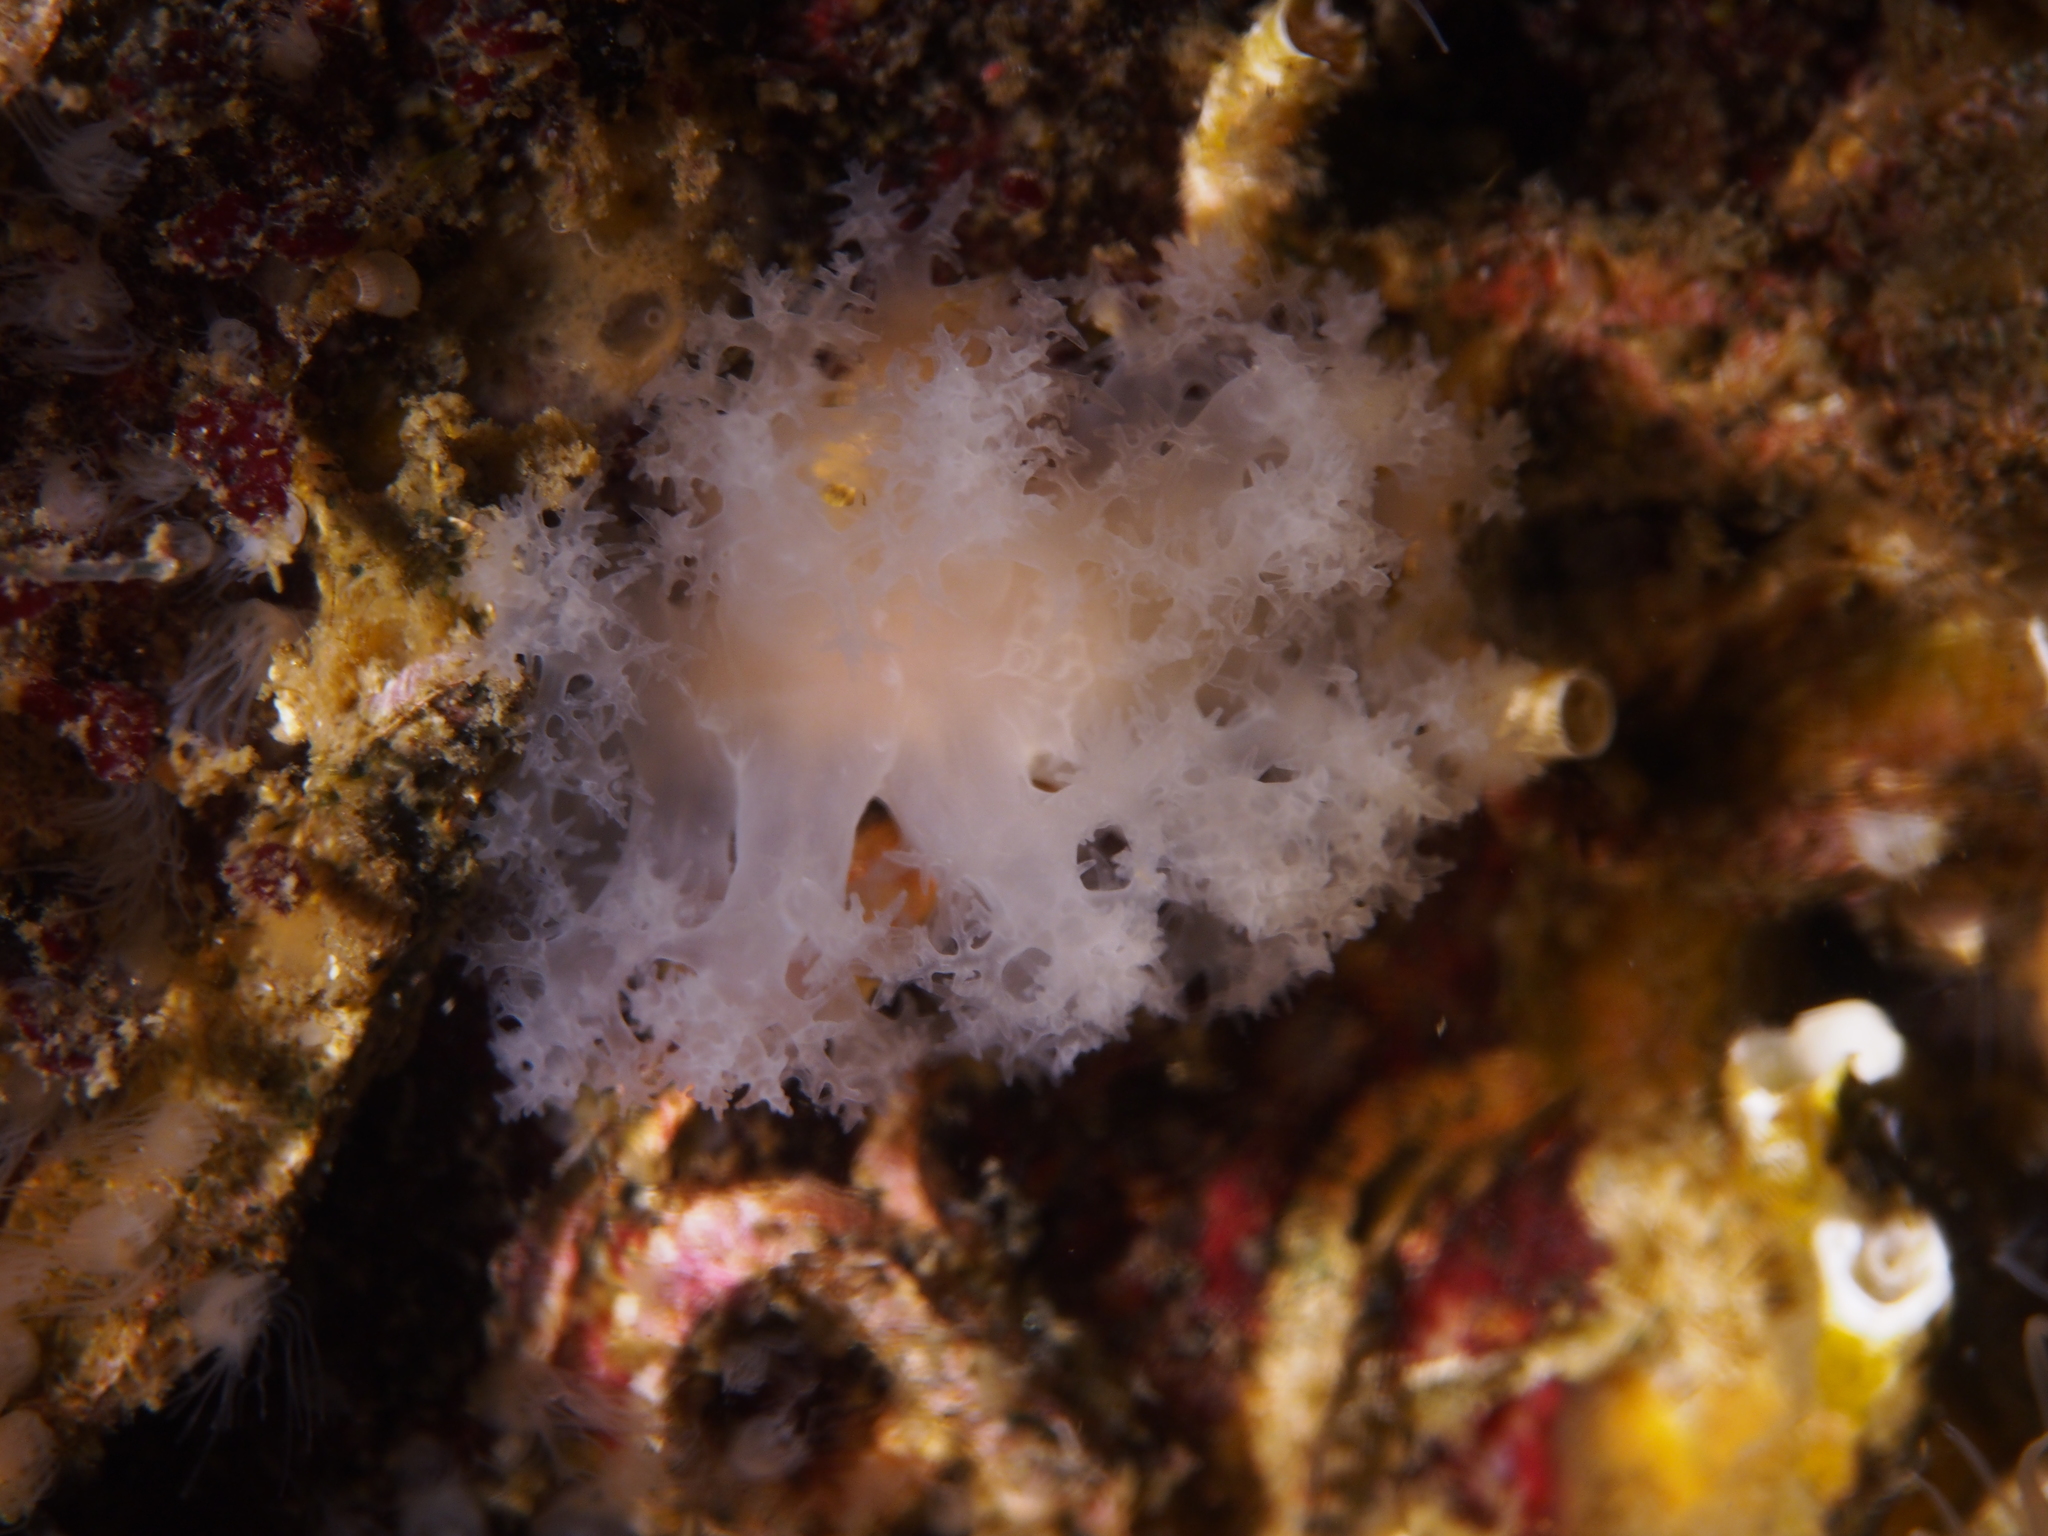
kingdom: Animalia
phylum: Mollusca
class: Gastropoda
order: Nudibranchia
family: Dendronotidae
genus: Dendronotus
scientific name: Dendronotus lacteus
